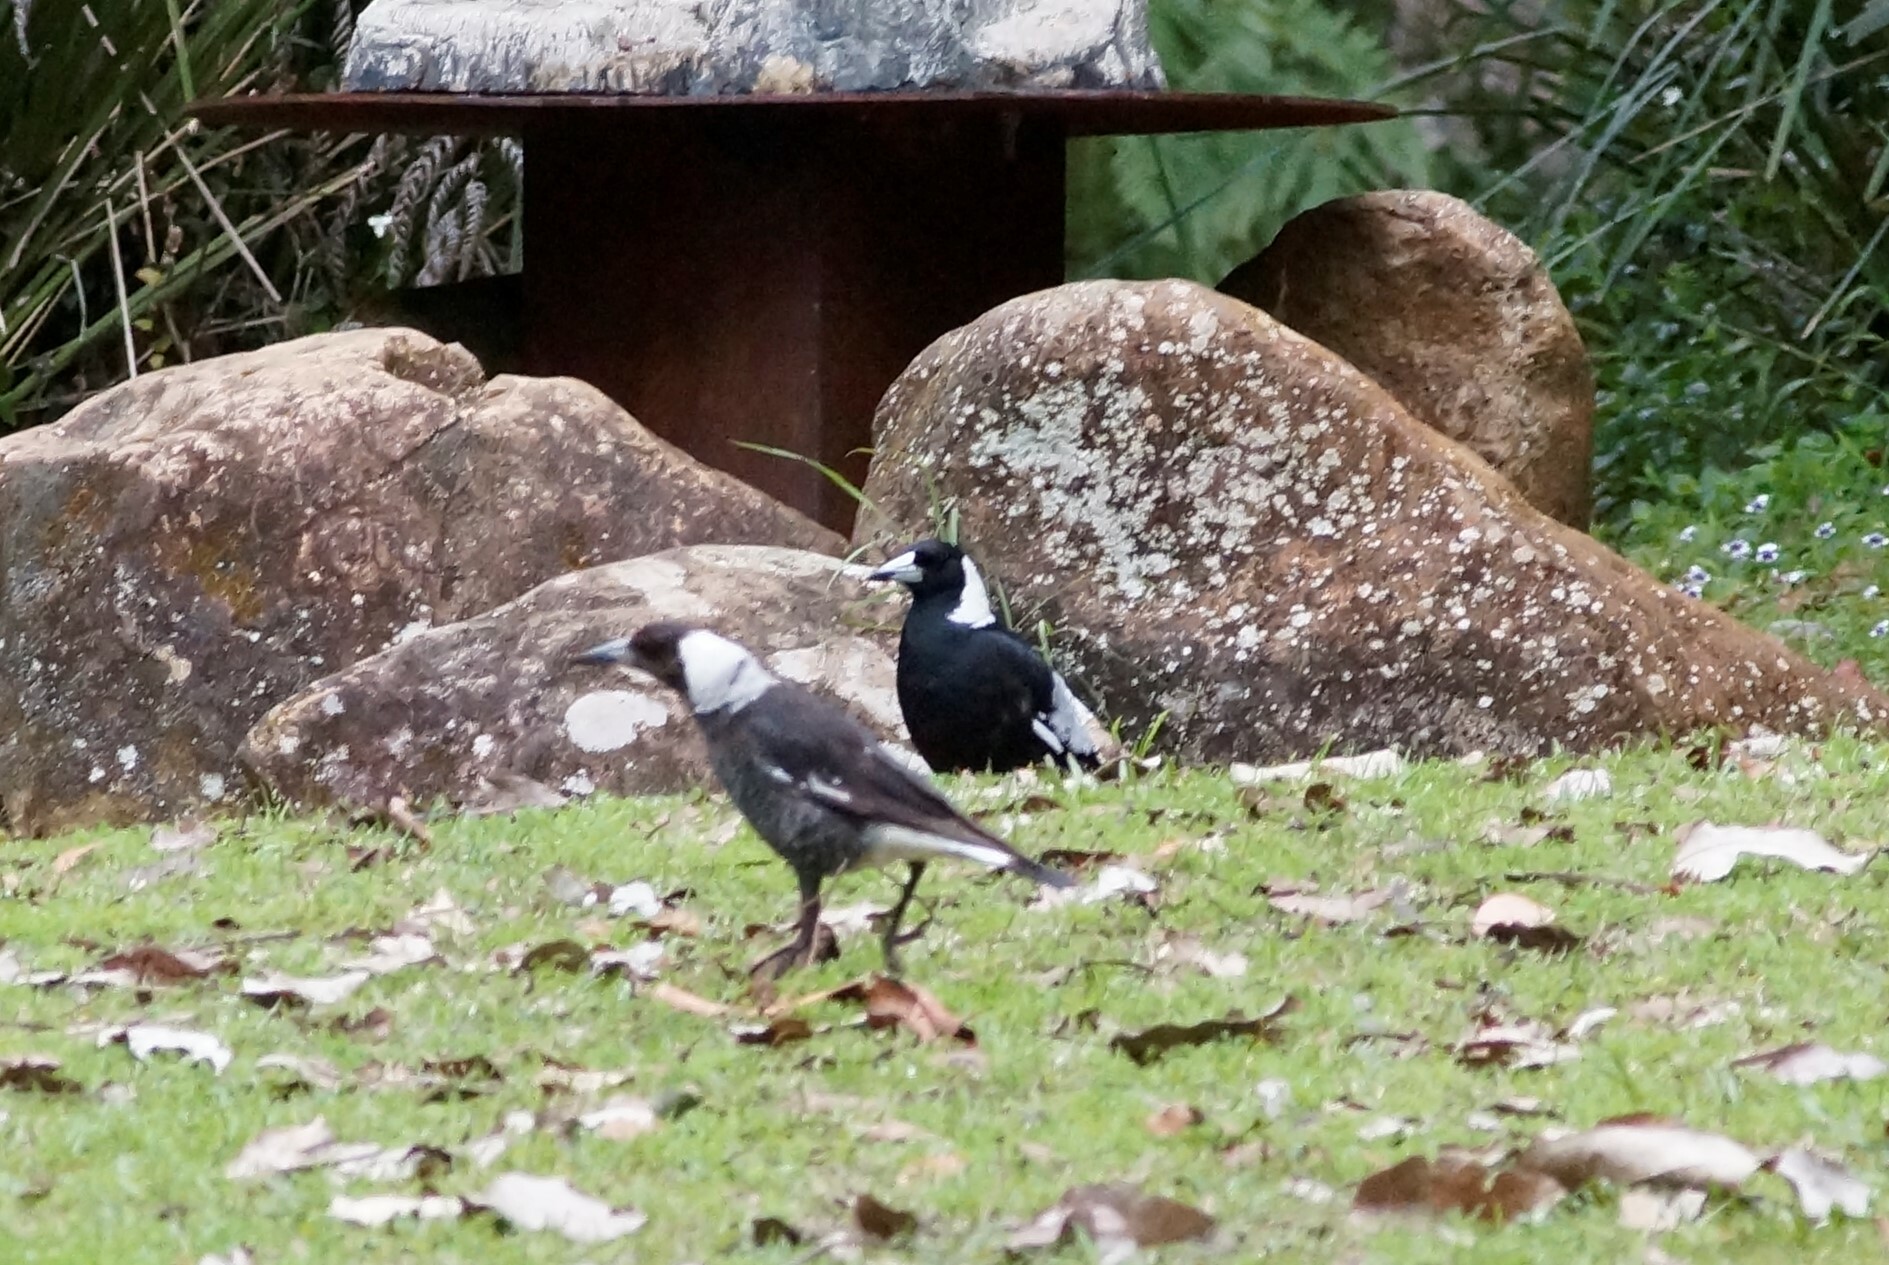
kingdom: Animalia
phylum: Chordata
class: Aves
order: Passeriformes
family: Cracticidae
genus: Gymnorhina
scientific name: Gymnorhina tibicen
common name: Australian magpie
